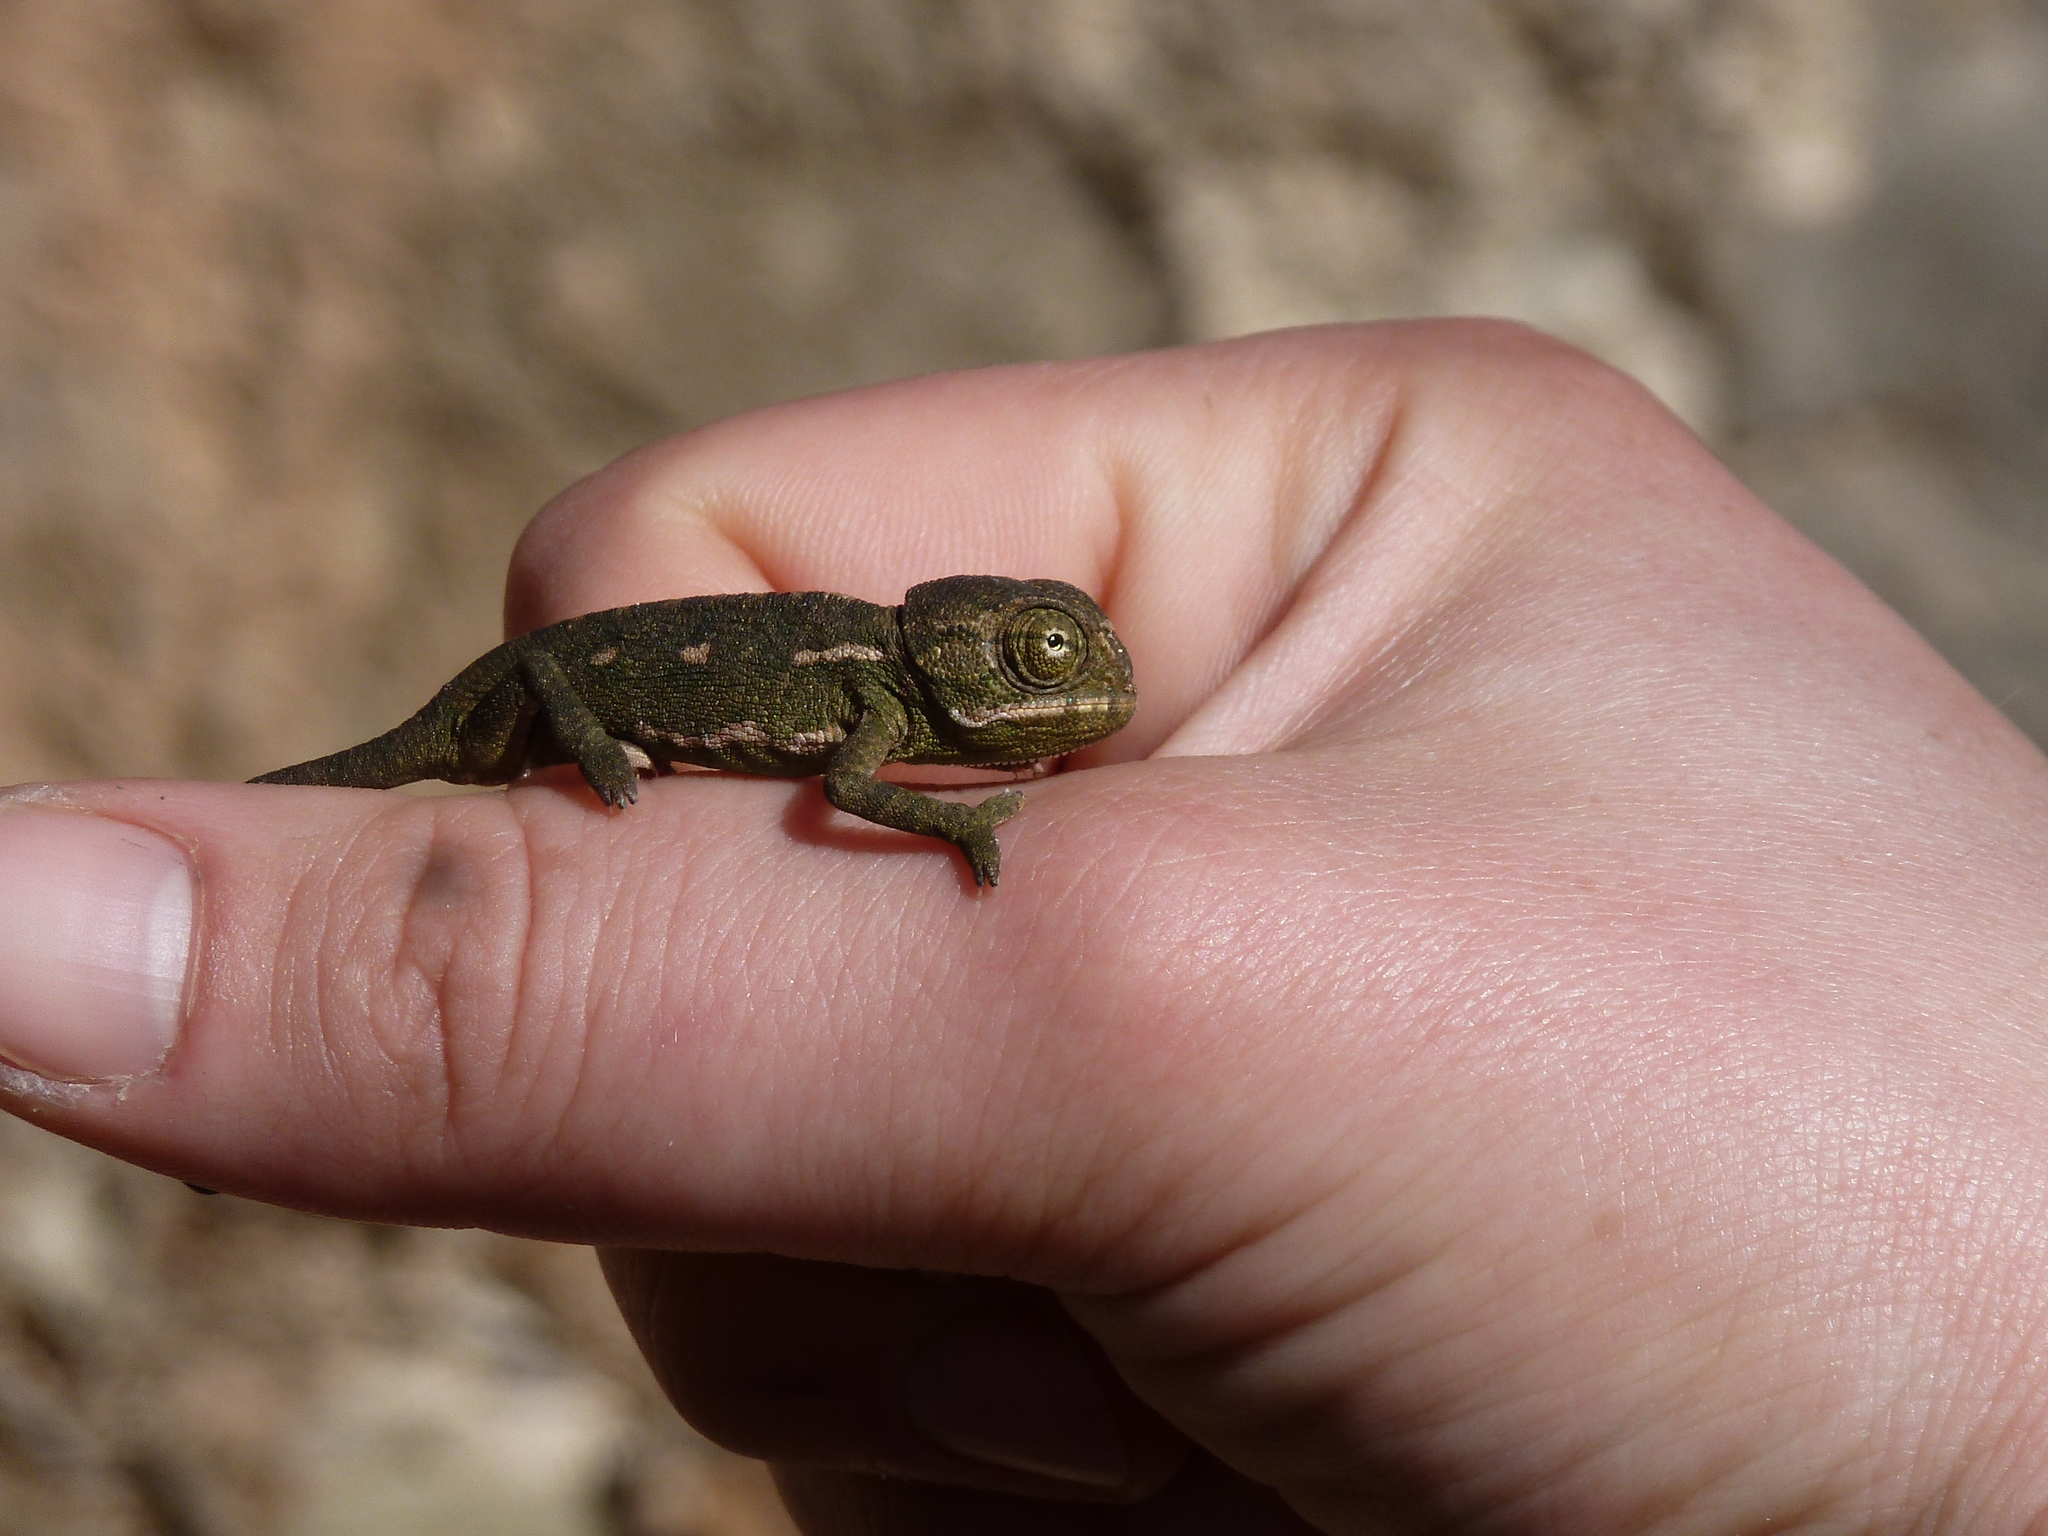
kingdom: Animalia
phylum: Chordata
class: Squamata
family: Chamaeleonidae
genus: Chamaeleo
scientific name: Chamaeleo chamaeleon
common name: Mediterranean chameleon
